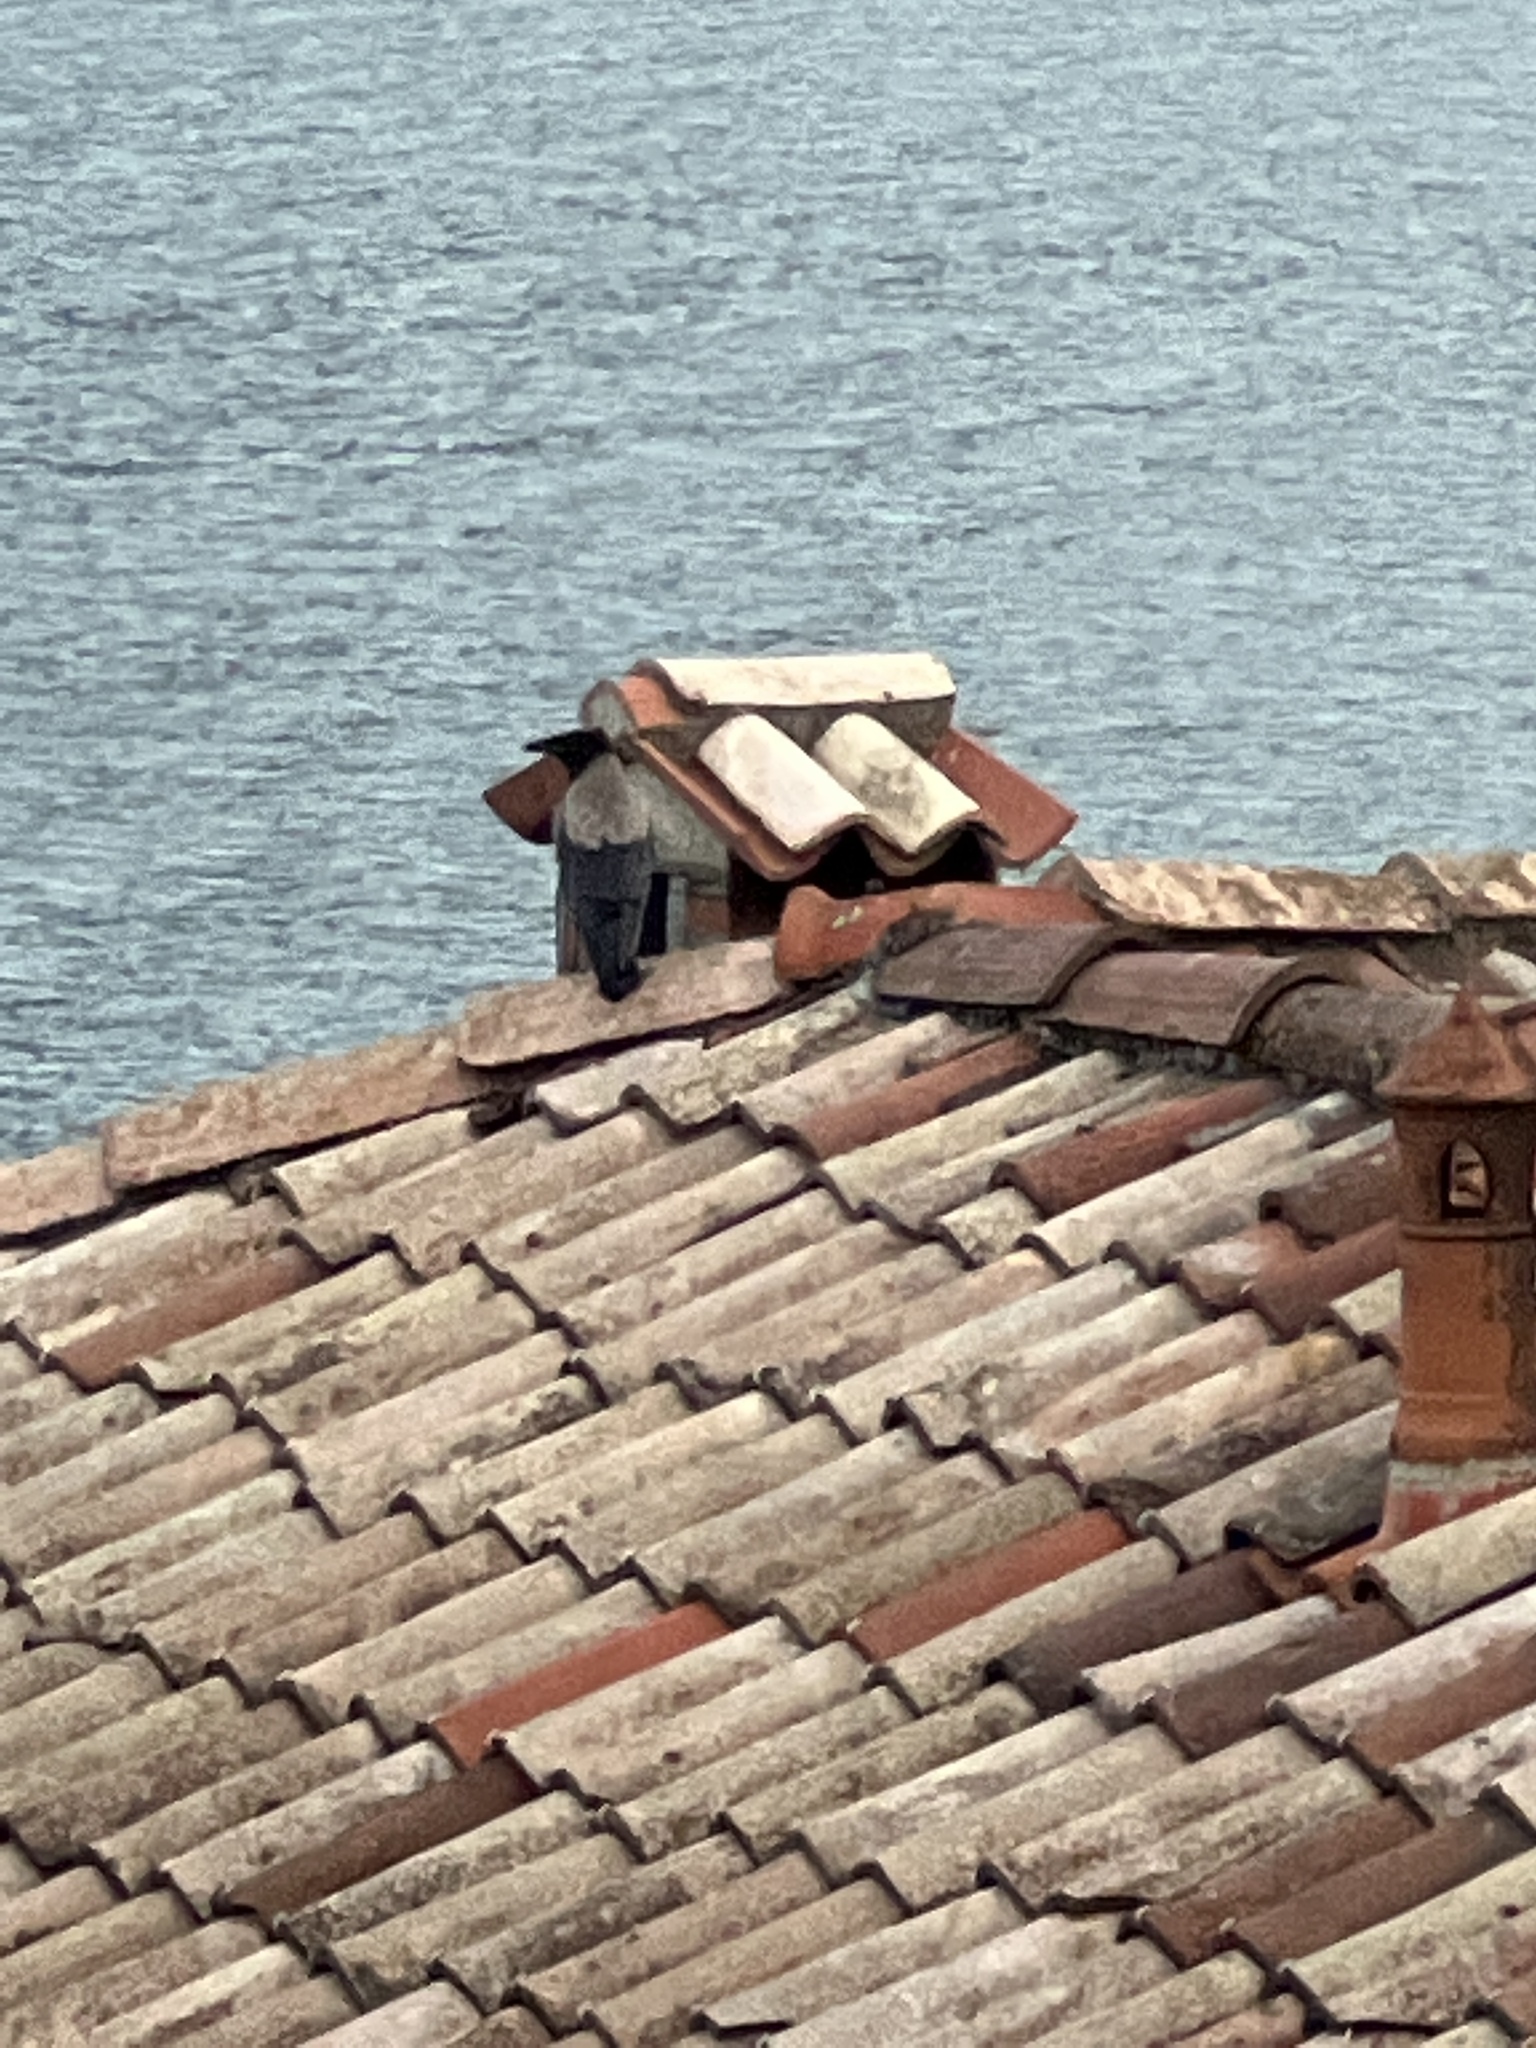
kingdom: Animalia
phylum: Chordata
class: Aves
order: Passeriformes
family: Corvidae
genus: Corvus
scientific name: Corvus cornix
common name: Hooded crow
